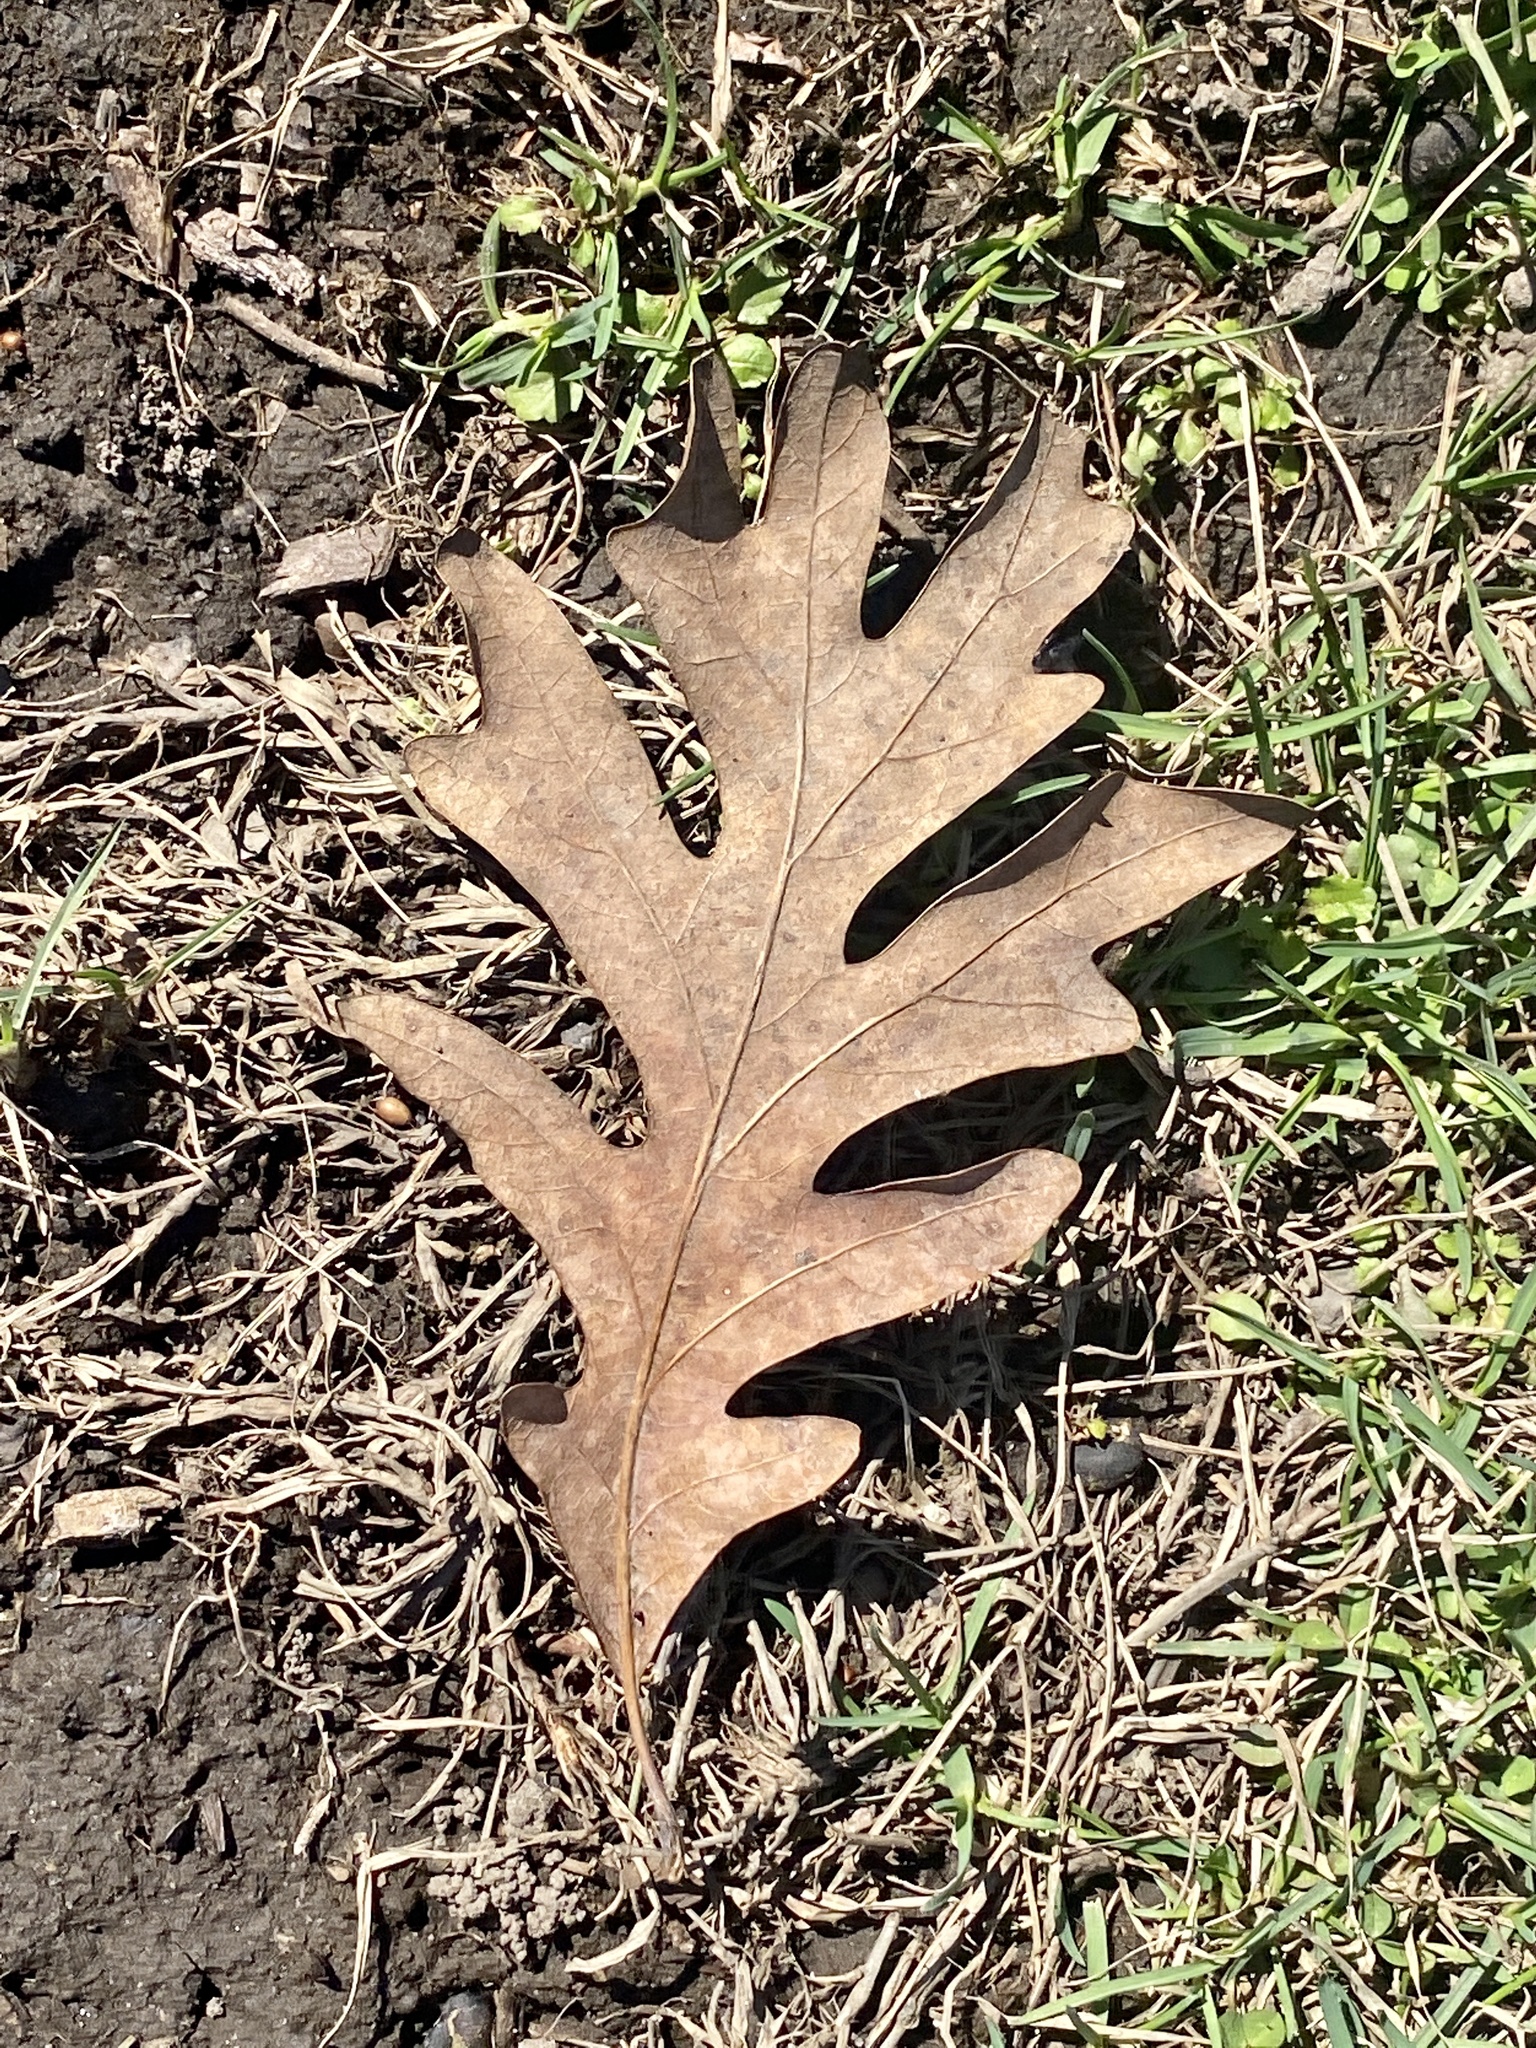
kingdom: Plantae
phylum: Tracheophyta
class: Magnoliopsida
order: Fagales
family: Fagaceae
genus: Quercus
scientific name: Quercus alba
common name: White oak
